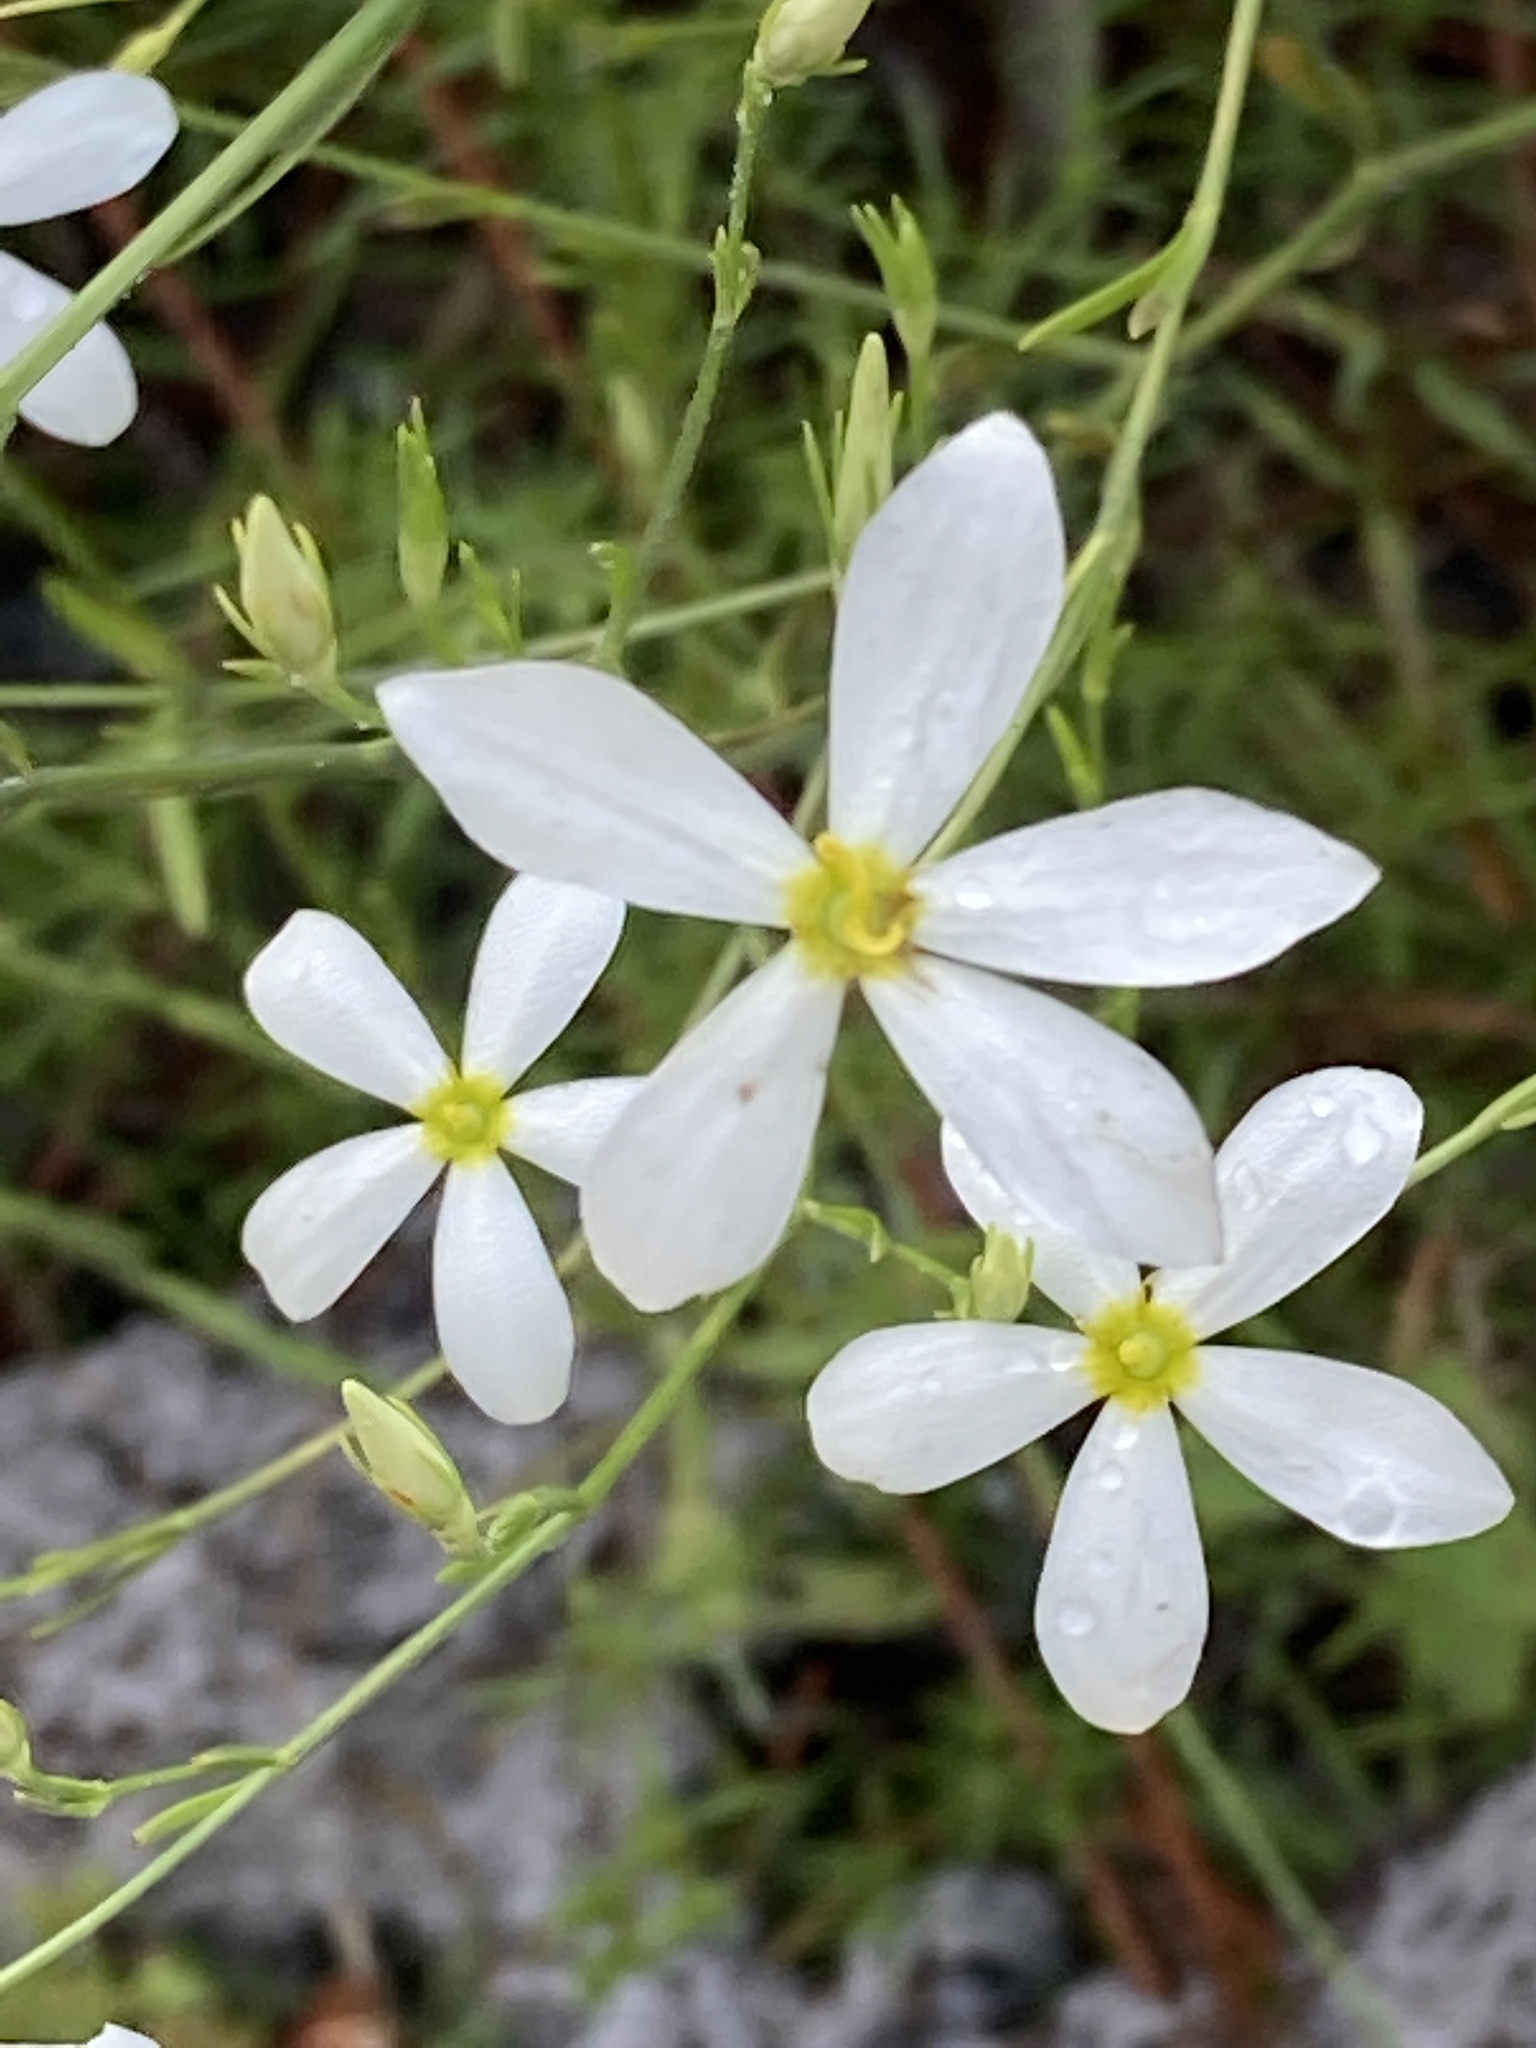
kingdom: Plantae
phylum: Tracheophyta
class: Magnoliopsida
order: Gentianales
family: Gentianaceae
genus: Sabatia
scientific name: Sabatia brevifolia
